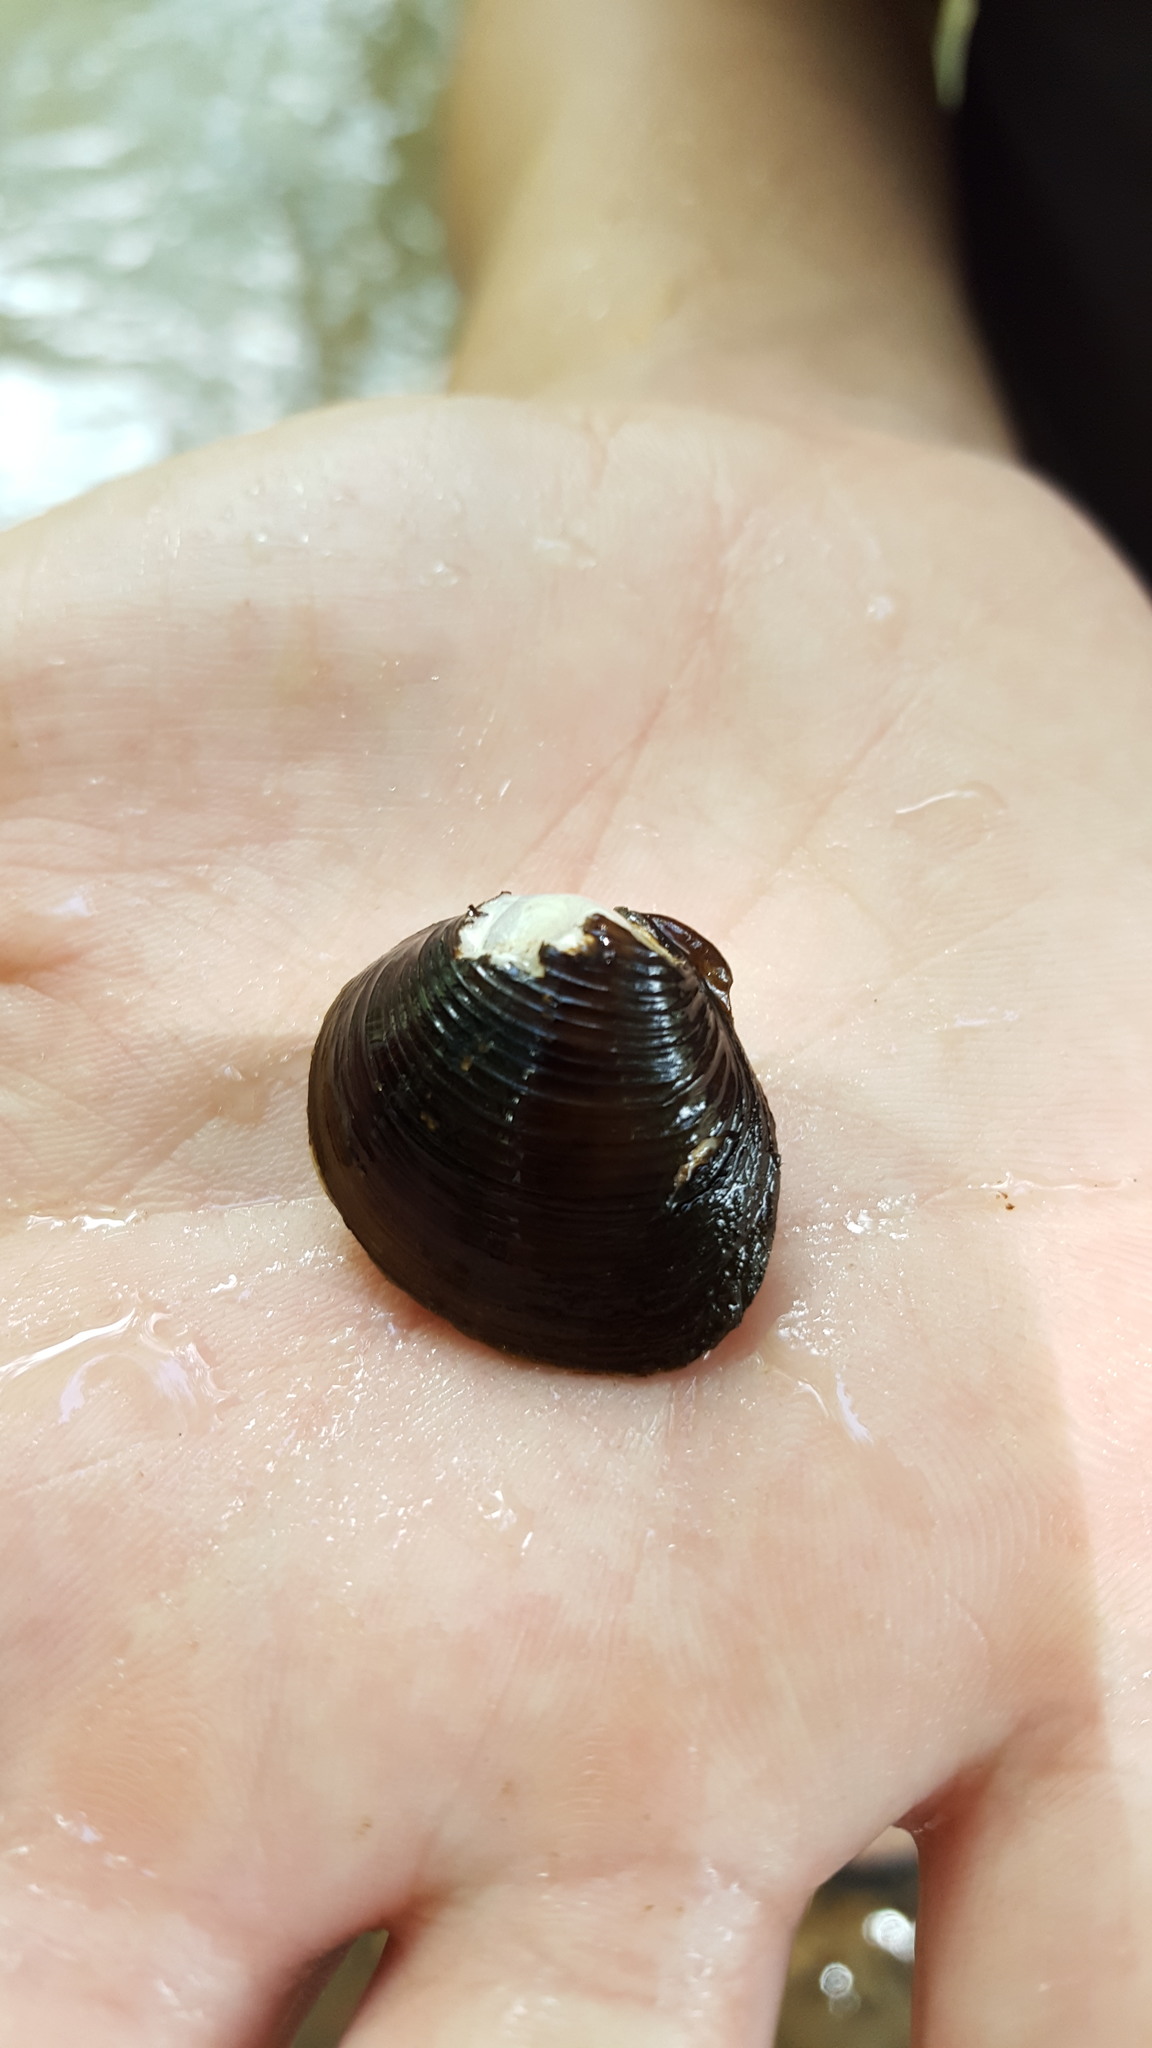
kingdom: Animalia
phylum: Mollusca
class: Bivalvia
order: Venerida
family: Cyrenidae
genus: Corbicula
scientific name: Corbicula fluminea
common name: Asian clam
